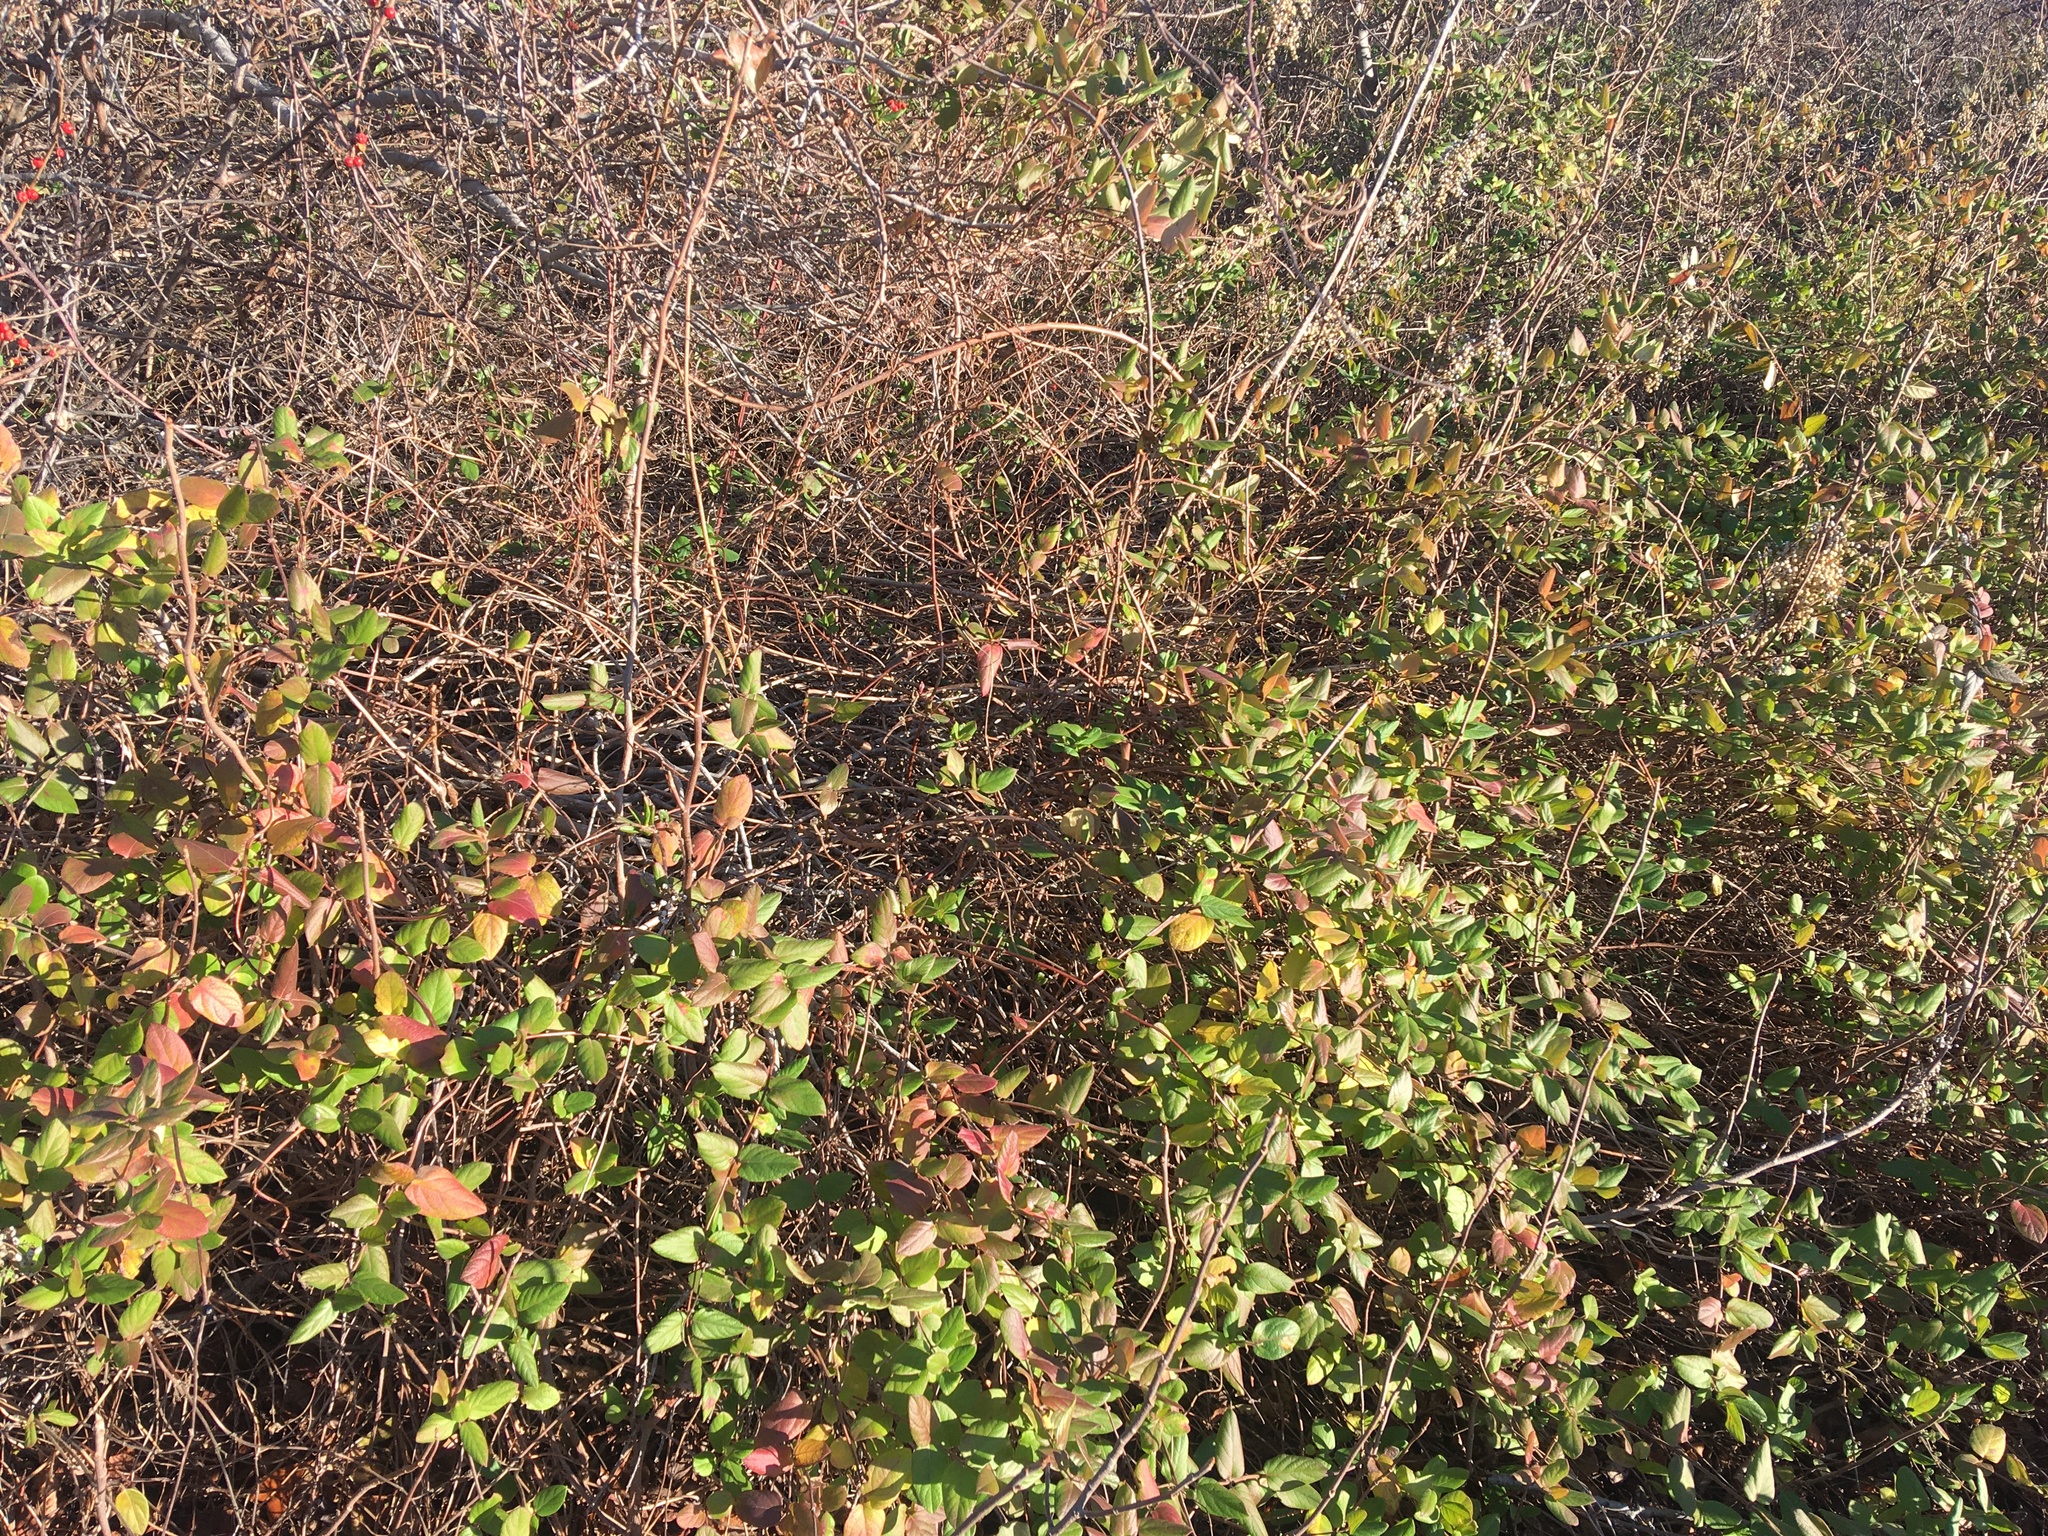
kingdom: Plantae
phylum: Tracheophyta
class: Magnoliopsida
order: Dipsacales
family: Caprifoliaceae
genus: Lonicera
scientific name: Lonicera japonica
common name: Japanese honeysuckle
